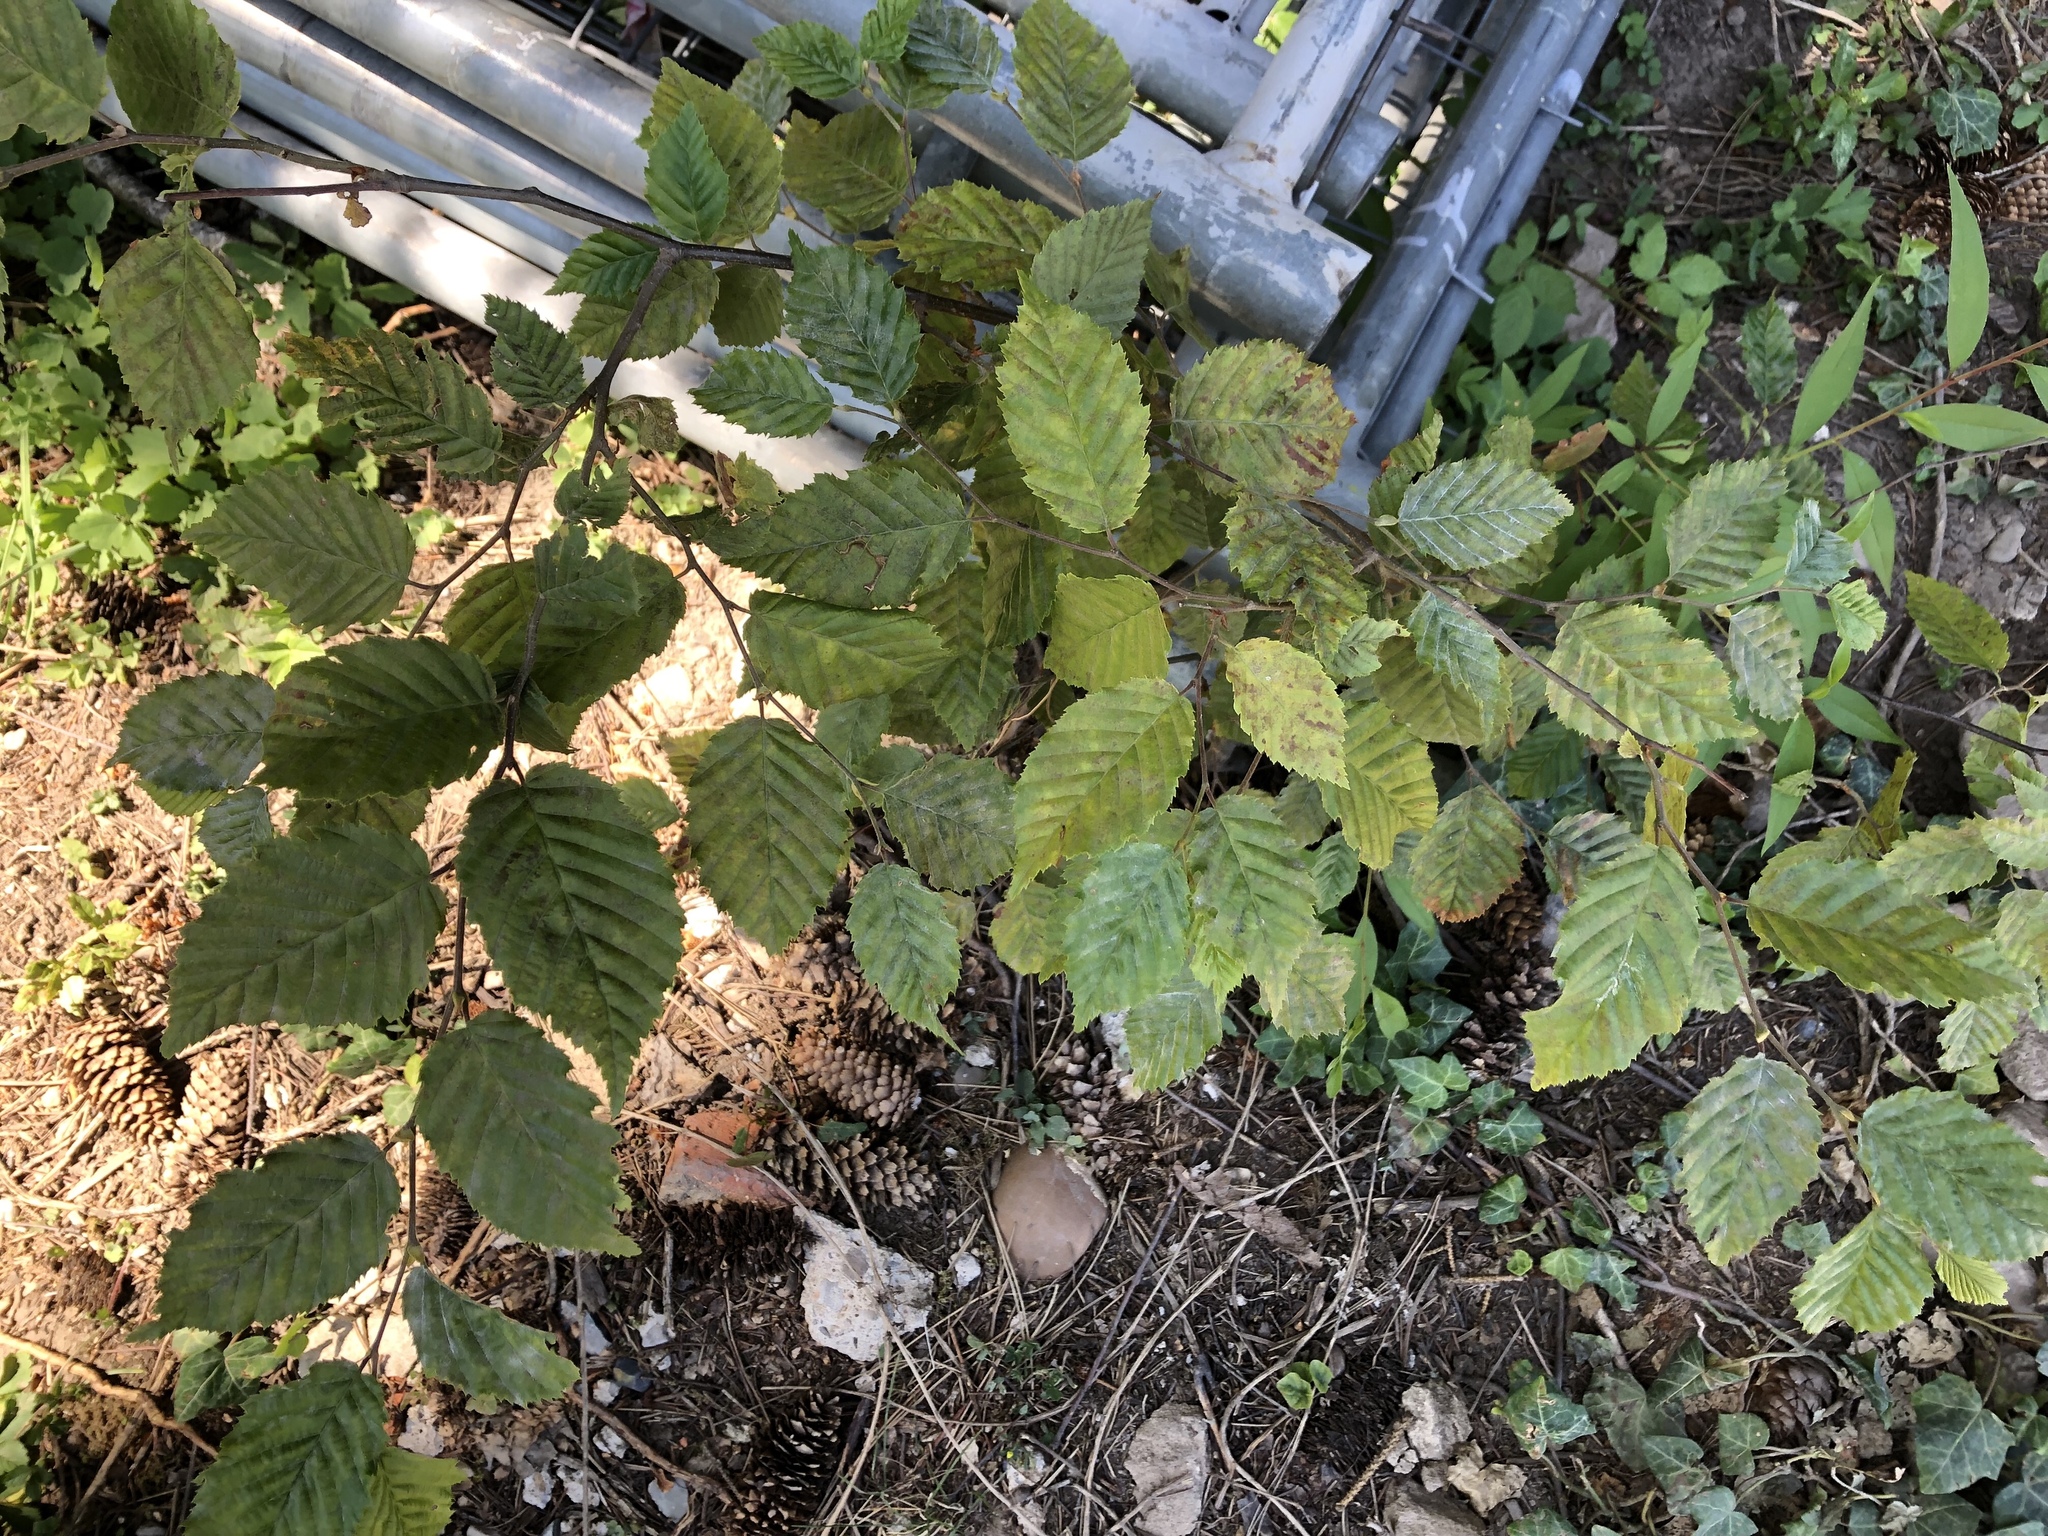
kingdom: Plantae
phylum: Tracheophyta
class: Magnoliopsida
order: Fagales
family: Betulaceae
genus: Carpinus
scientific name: Carpinus betulus
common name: Hornbeam
